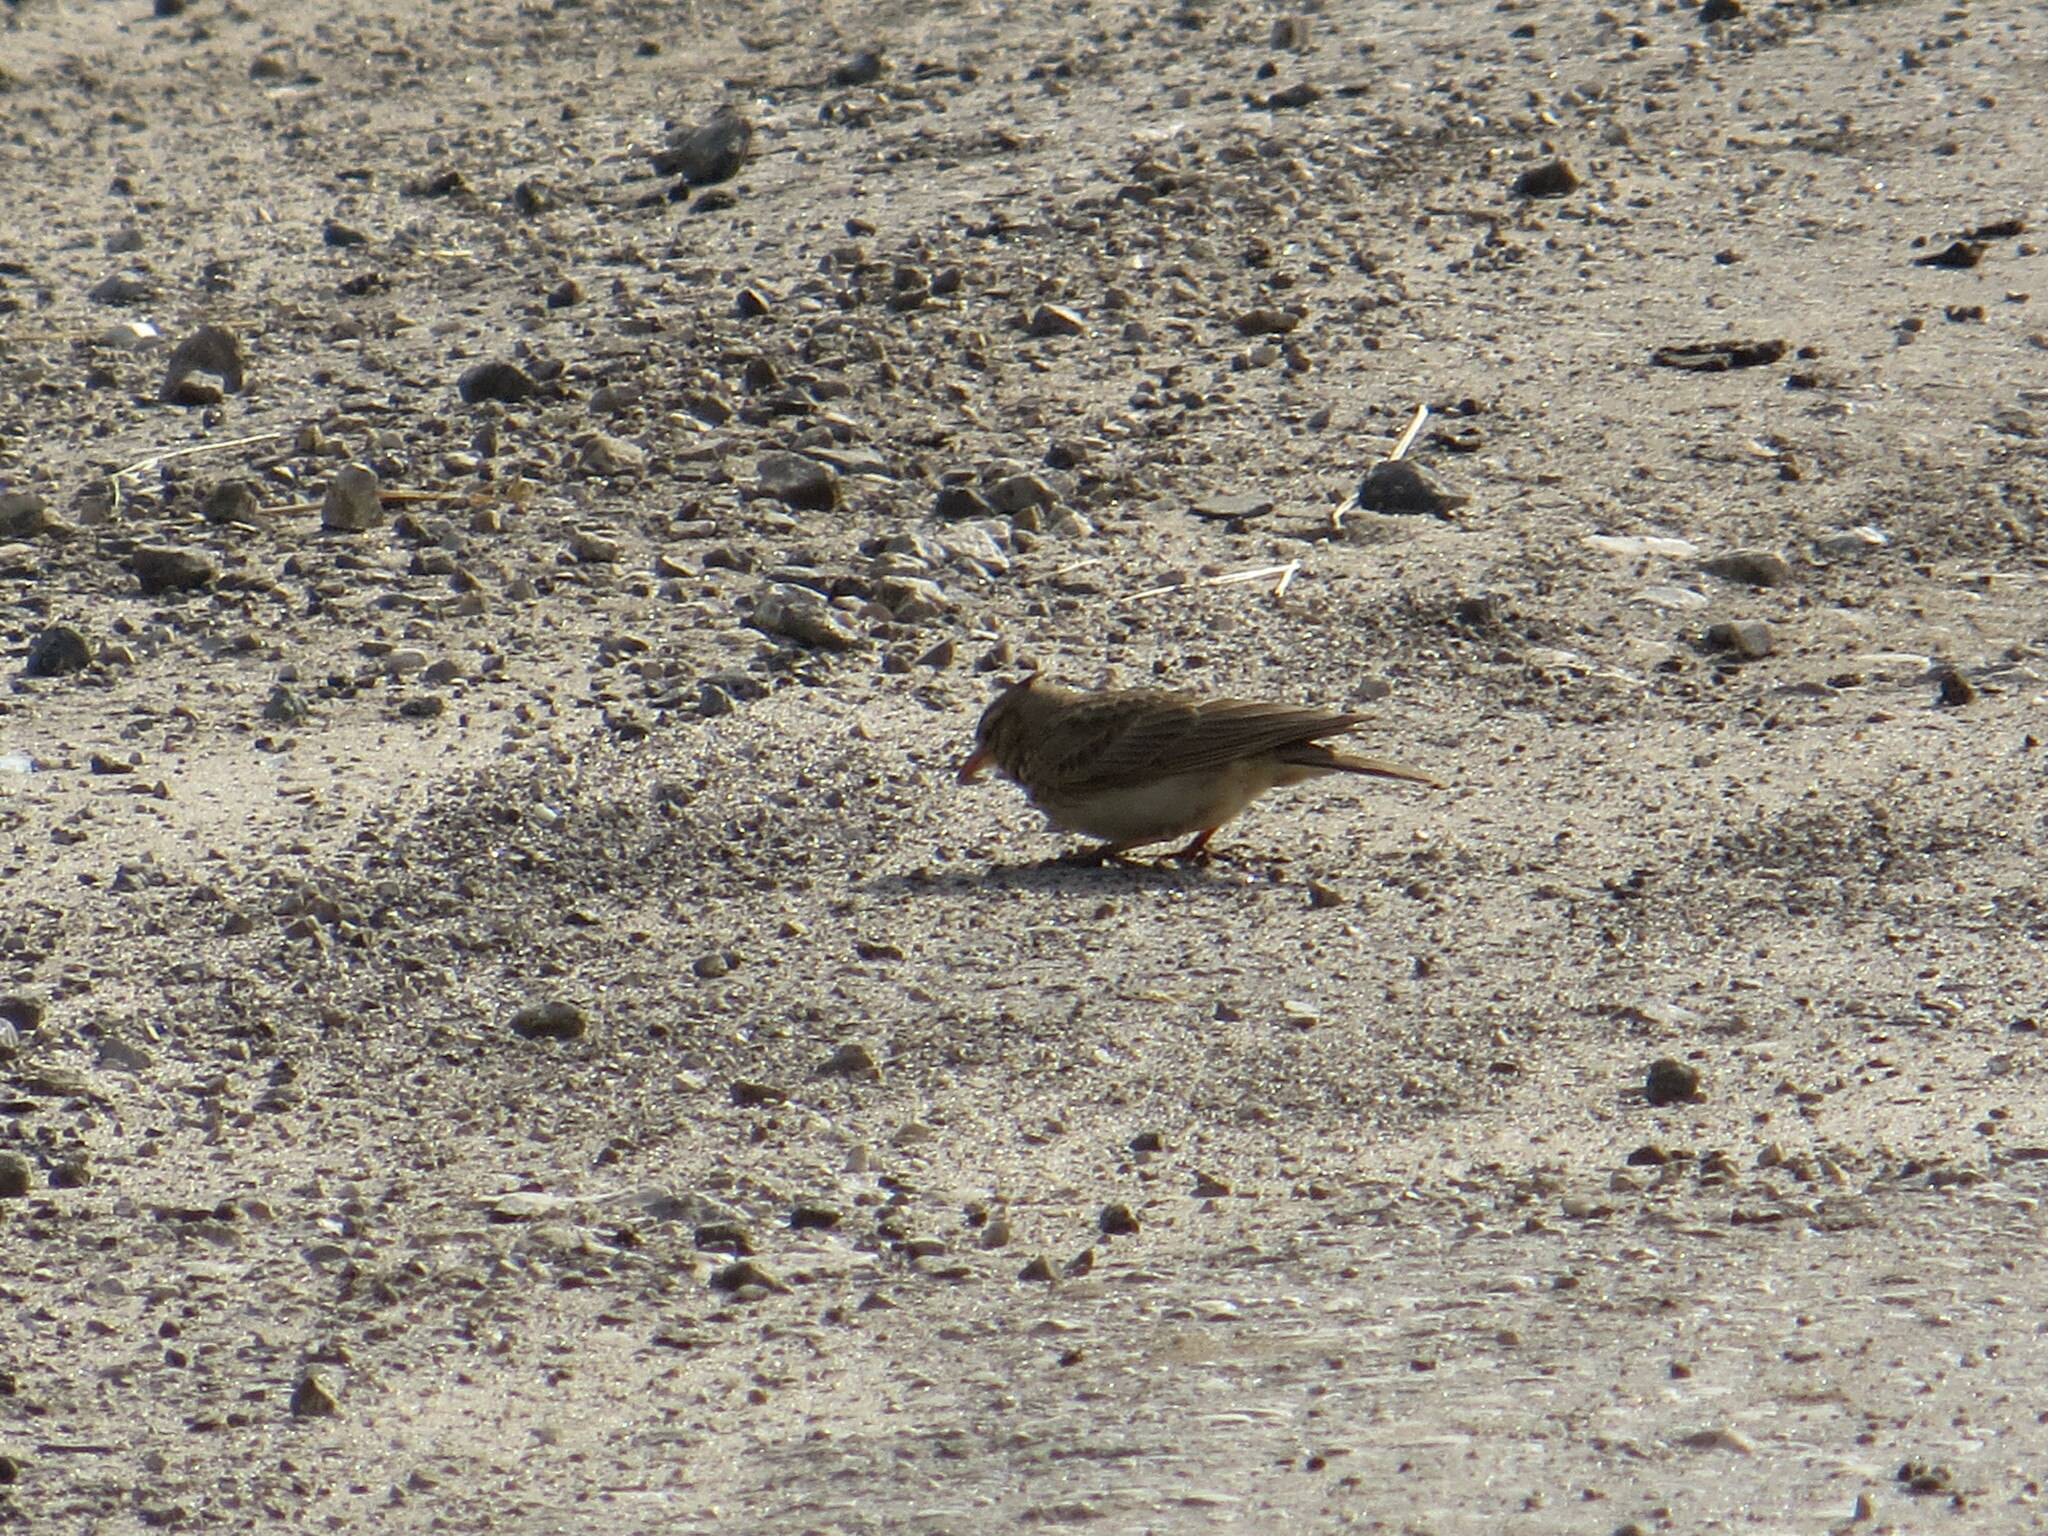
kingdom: Animalia
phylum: Chordata
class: Aves
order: Passeriformes
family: Alaudidae
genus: Galerida
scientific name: Galerida cristata
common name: Crested lark
